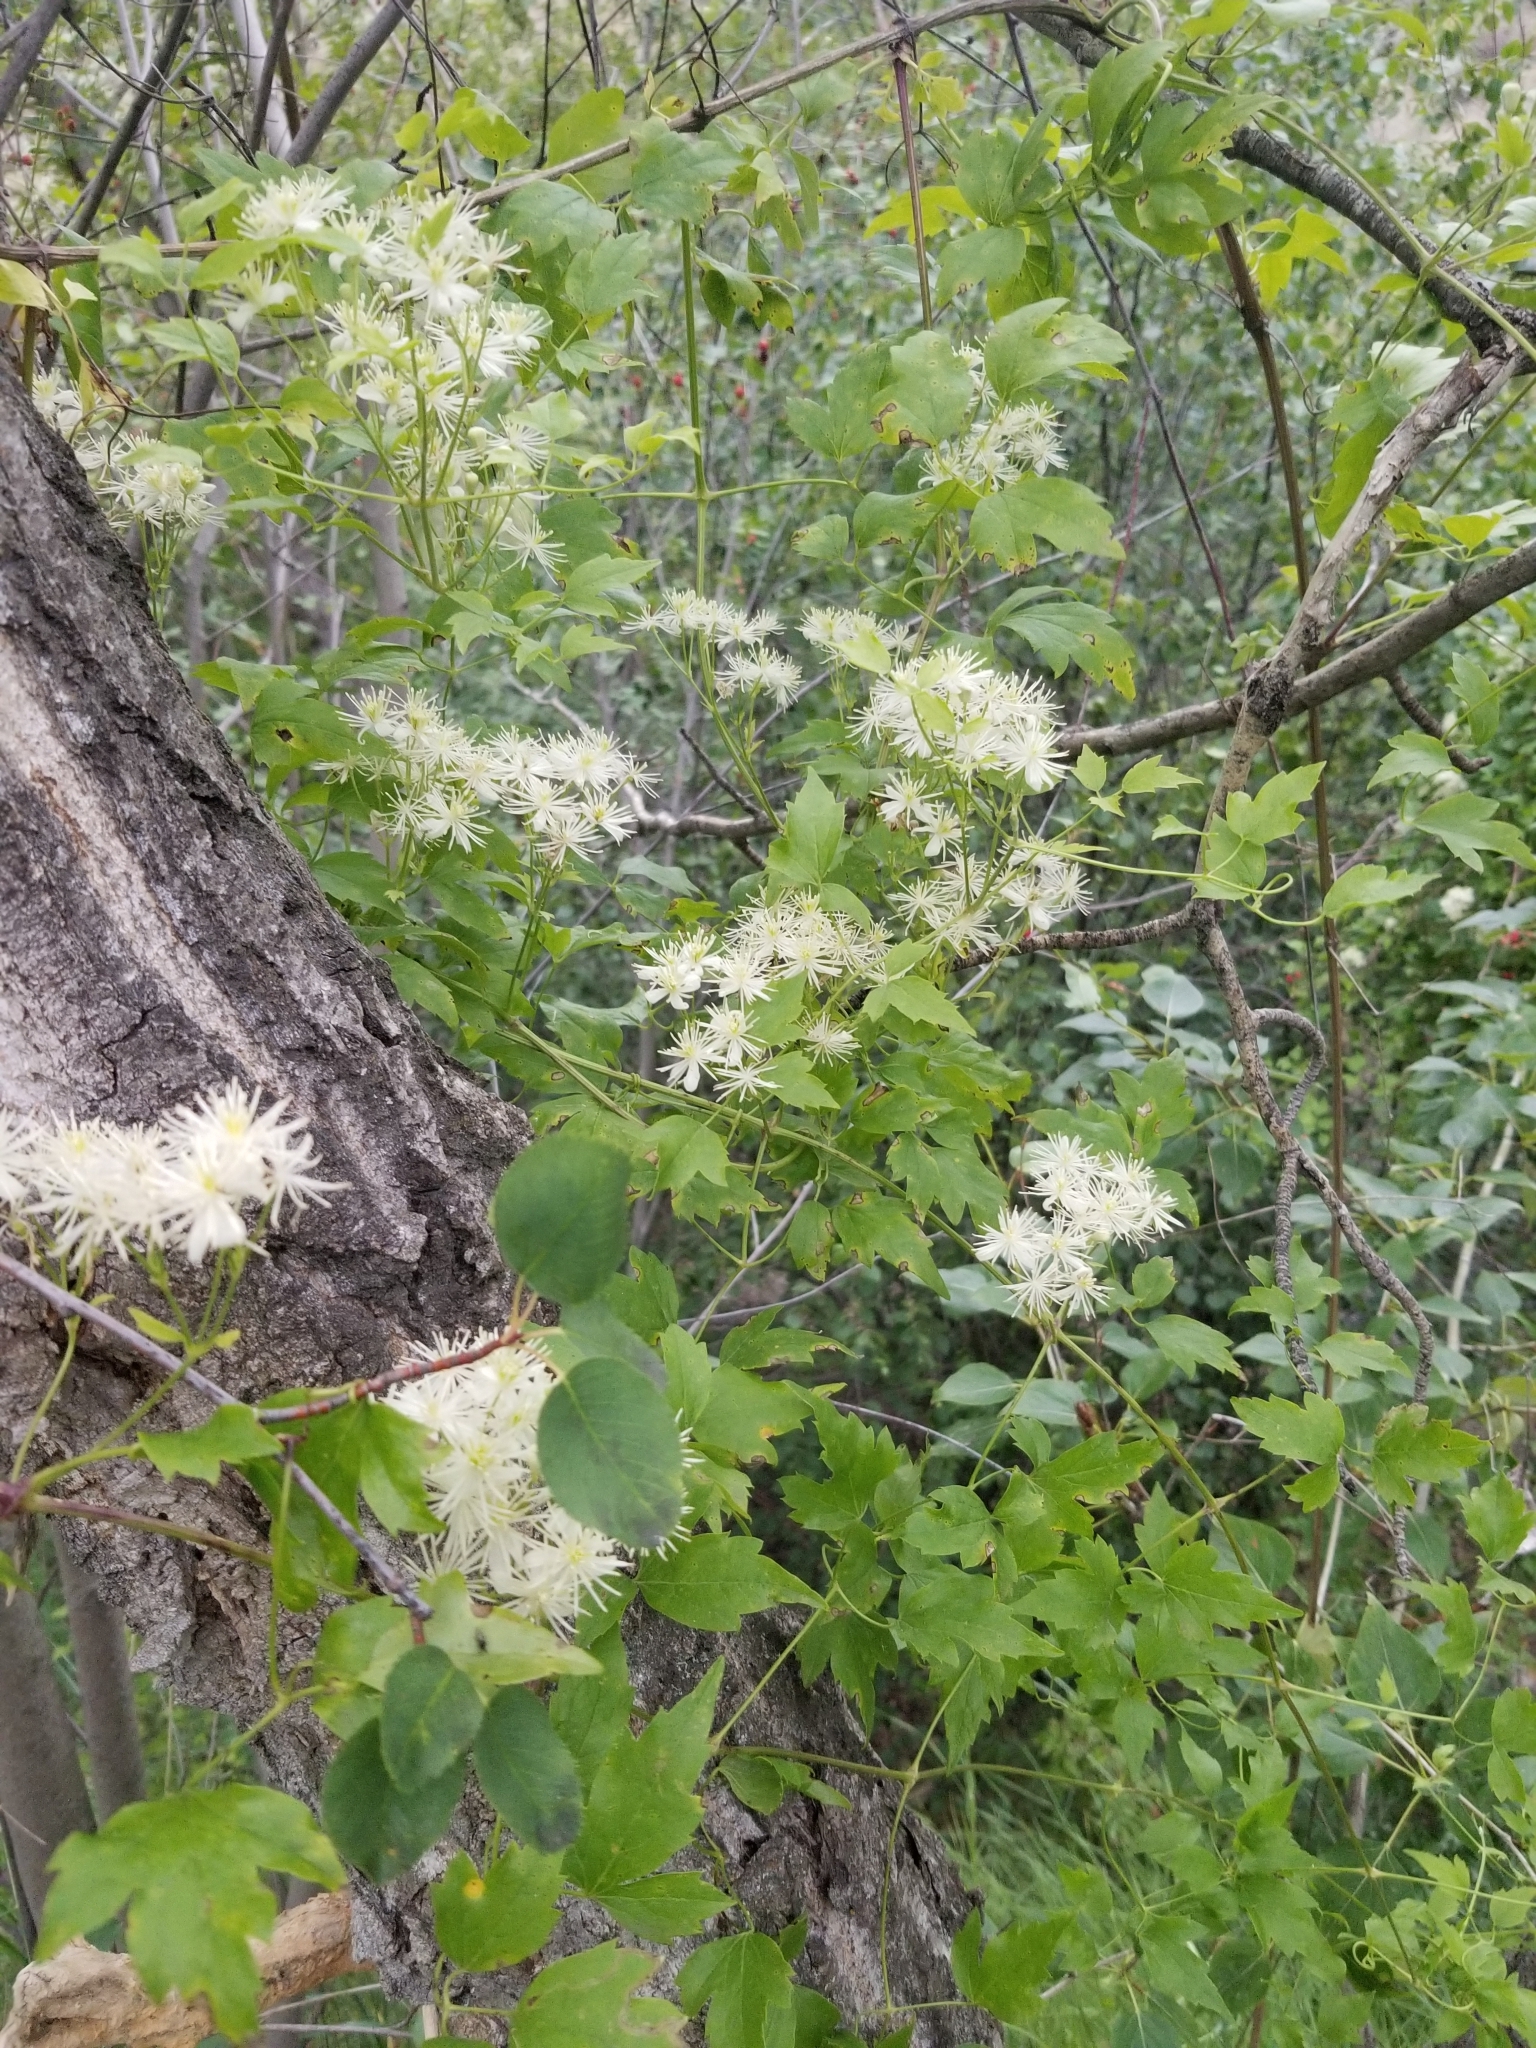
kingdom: Plantae
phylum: Tracheophyta
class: Magnoliopsida
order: Ranunculales
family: Ranunculaceae
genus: Clematis
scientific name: Clematis ligusticifolia
